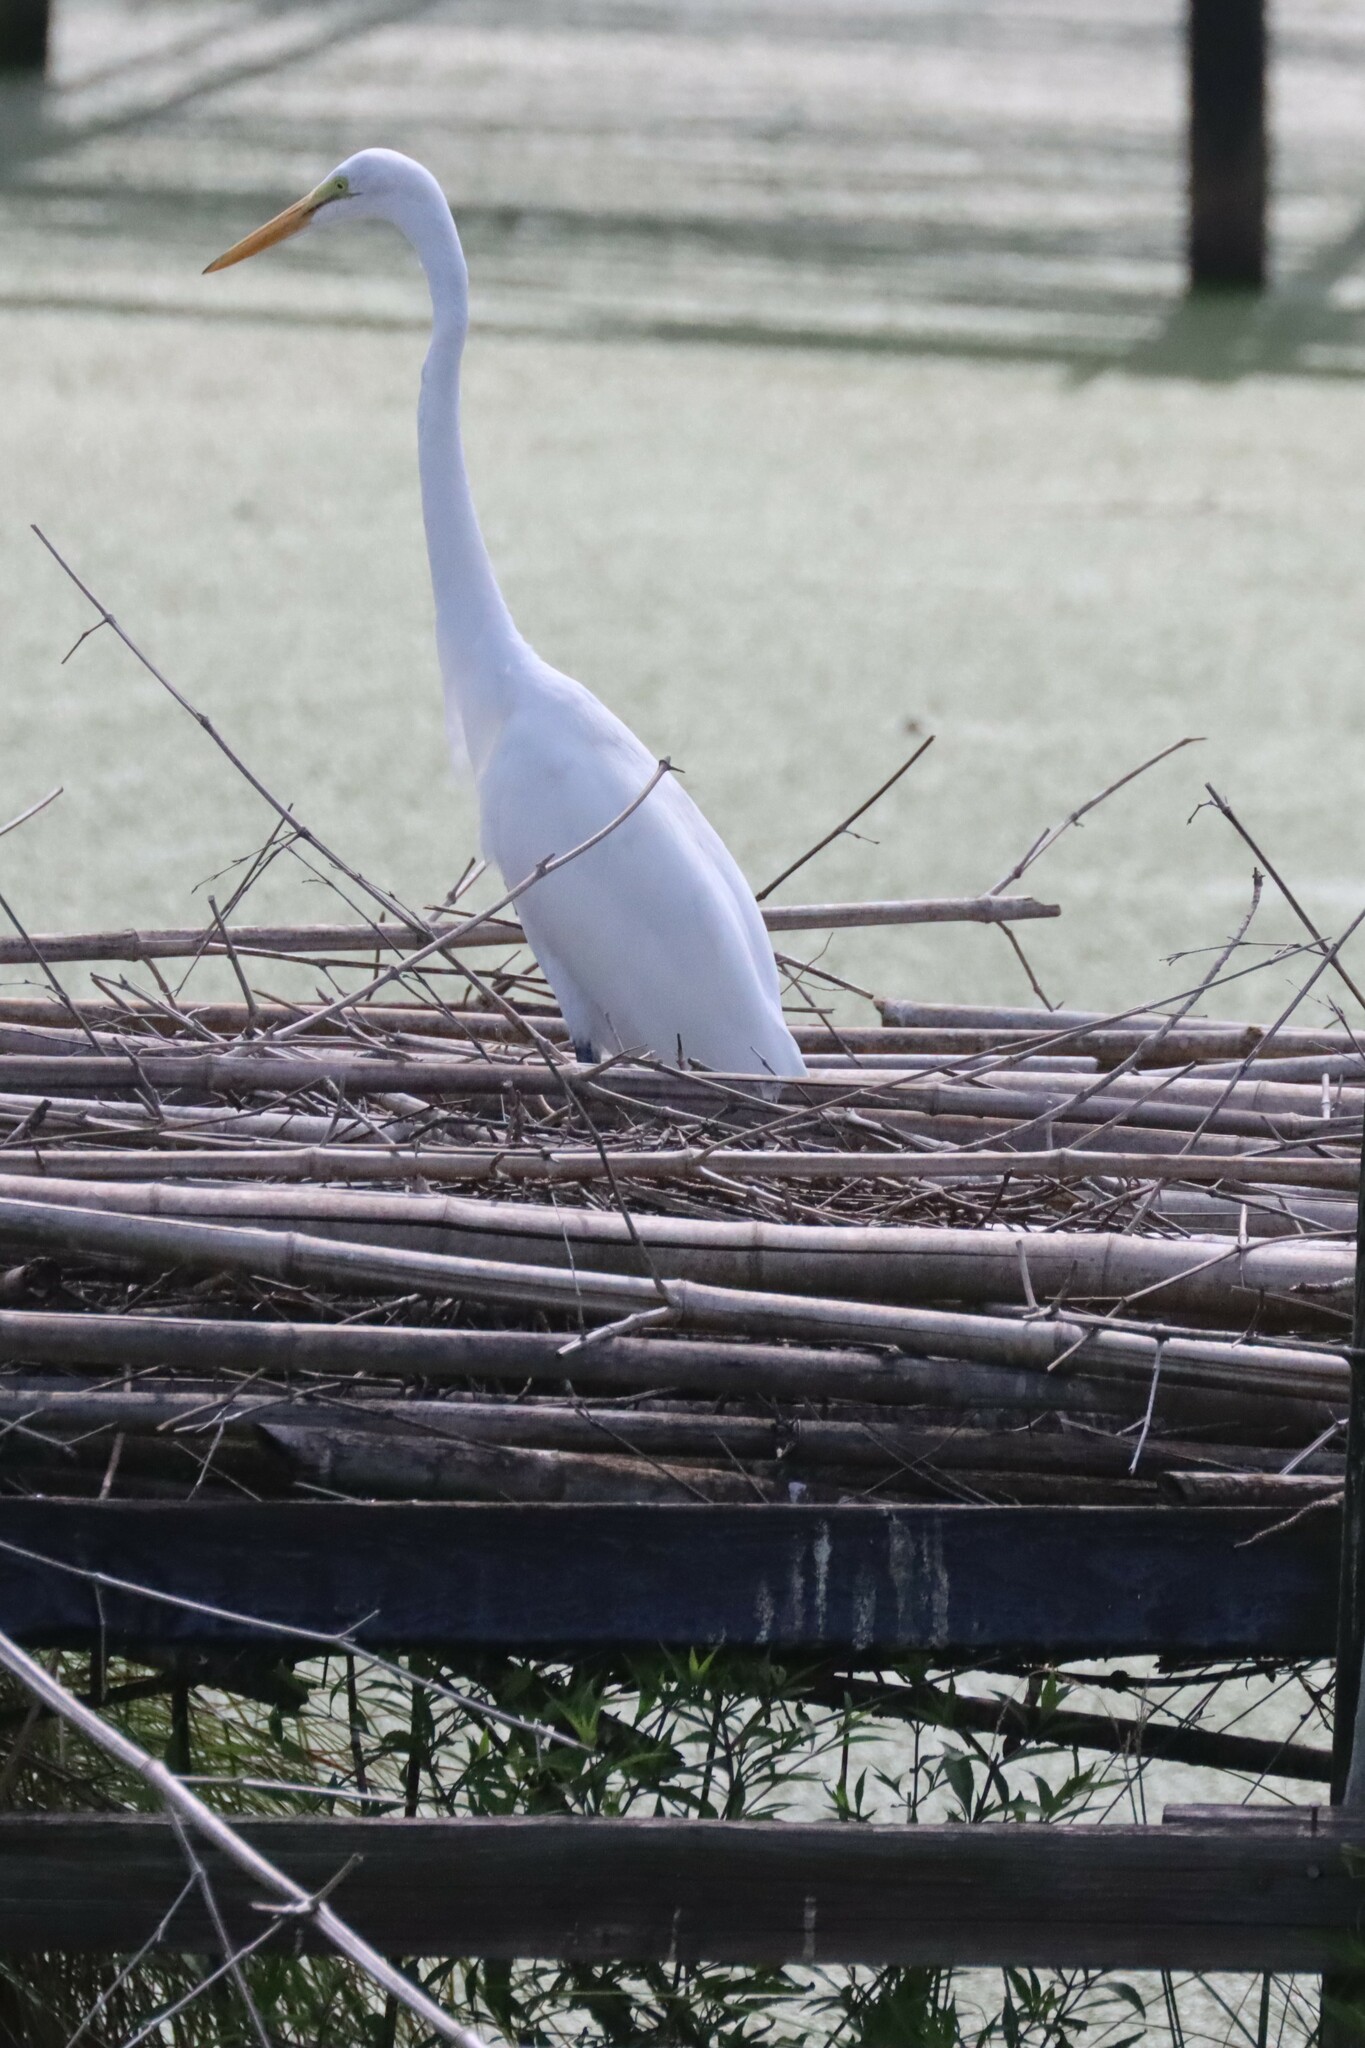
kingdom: Animalia
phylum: Chordata
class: Aves
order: Pelecaniformes
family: Ardeidae
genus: Ardea
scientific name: Ardea alba
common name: Great egret
